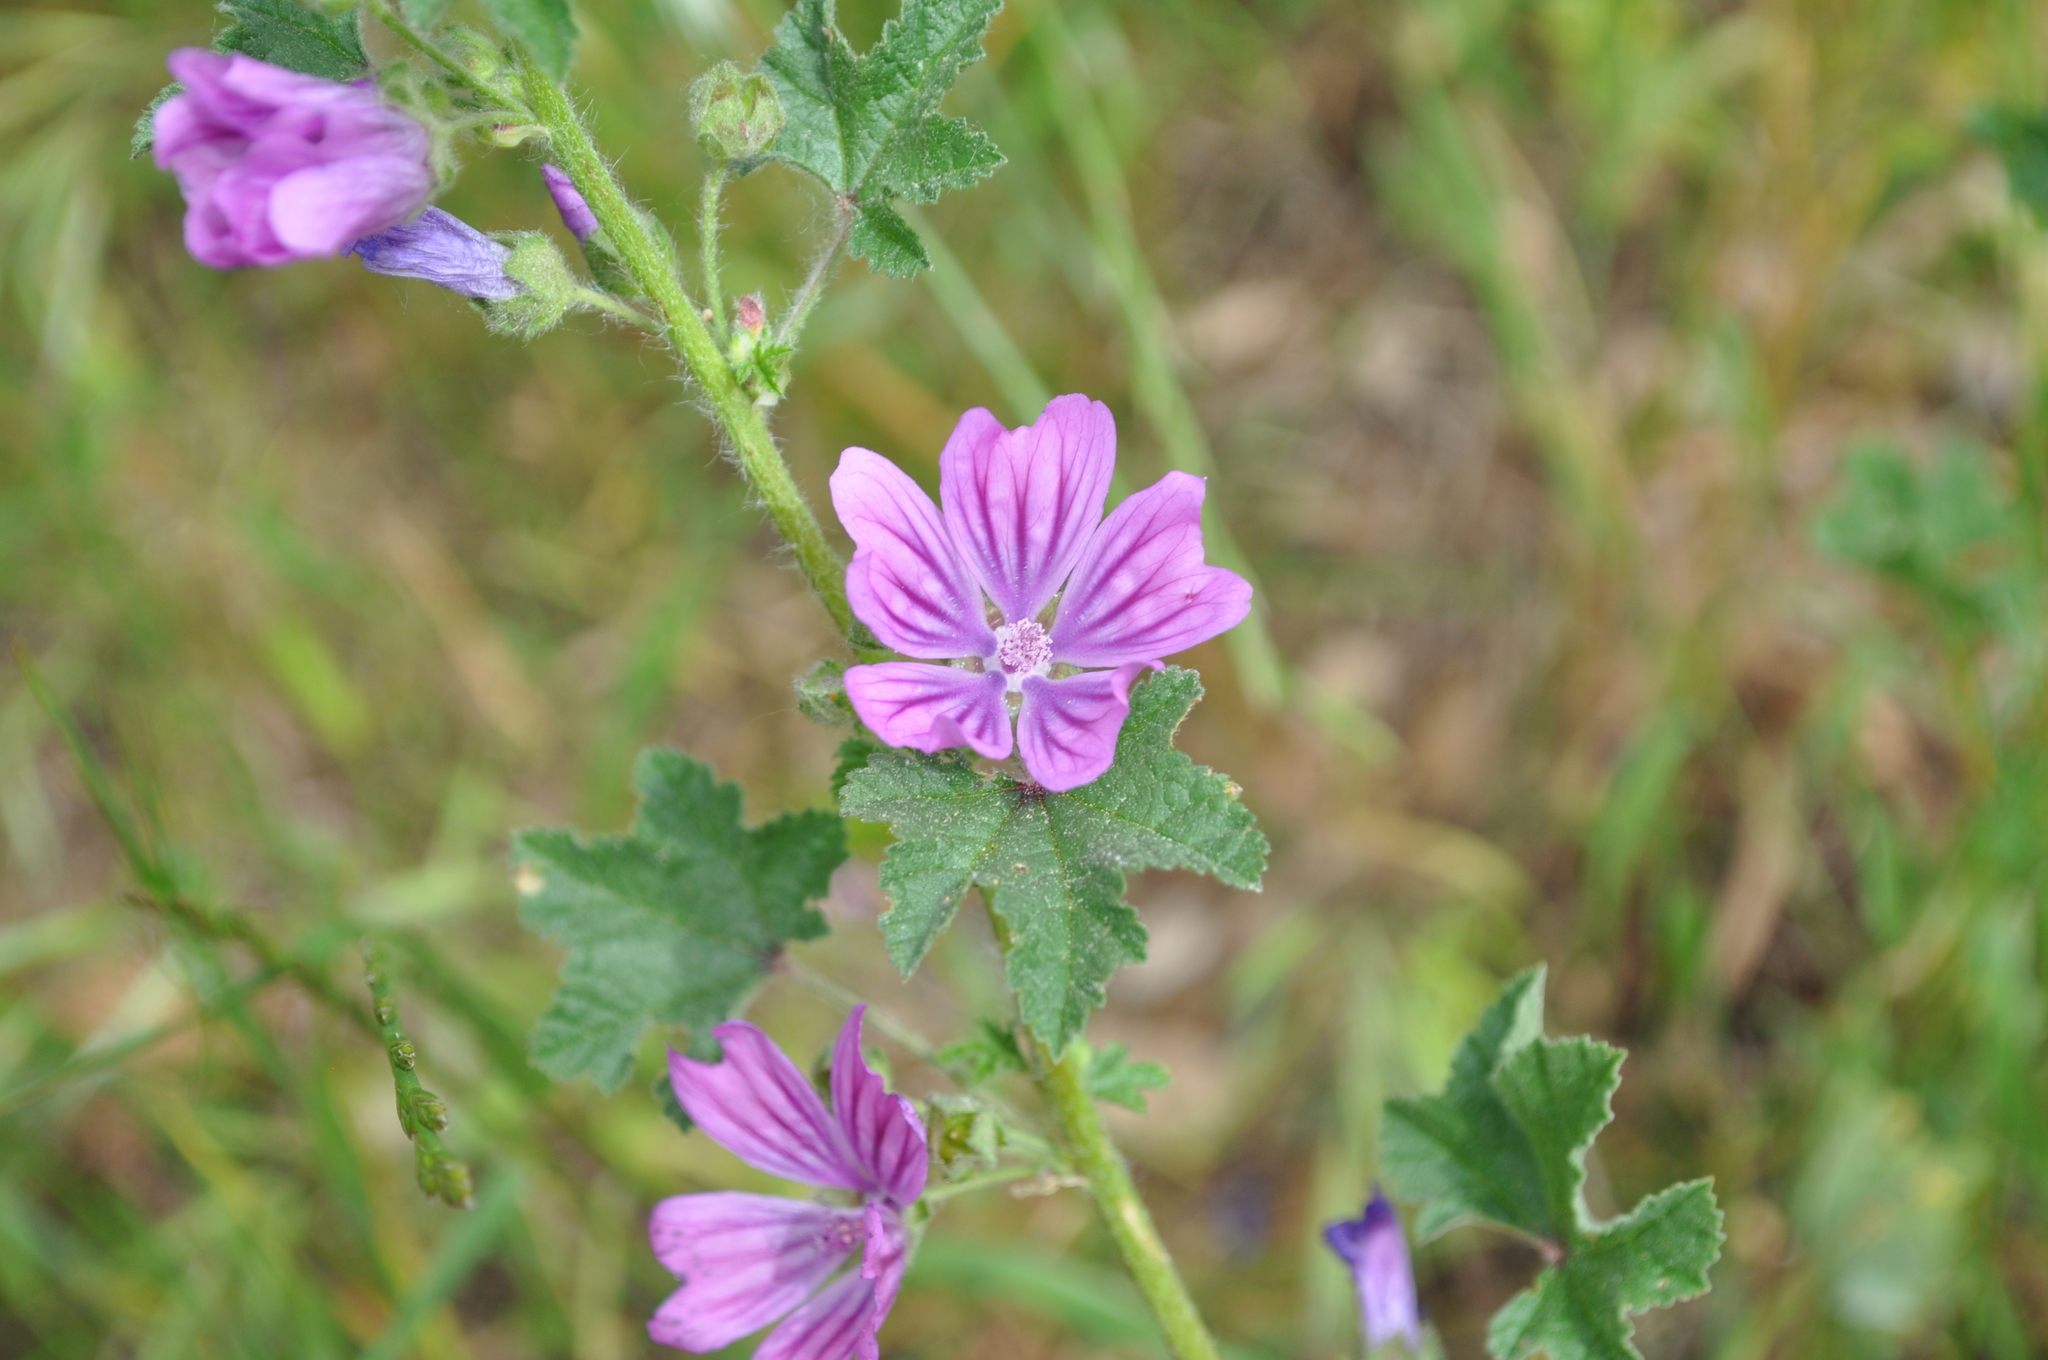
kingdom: Plantae
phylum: Tracheophyta
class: Magnoliopsida
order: Malvales
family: Malvaceae
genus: Malva
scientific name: Malva sylvestris
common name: Common mallow
